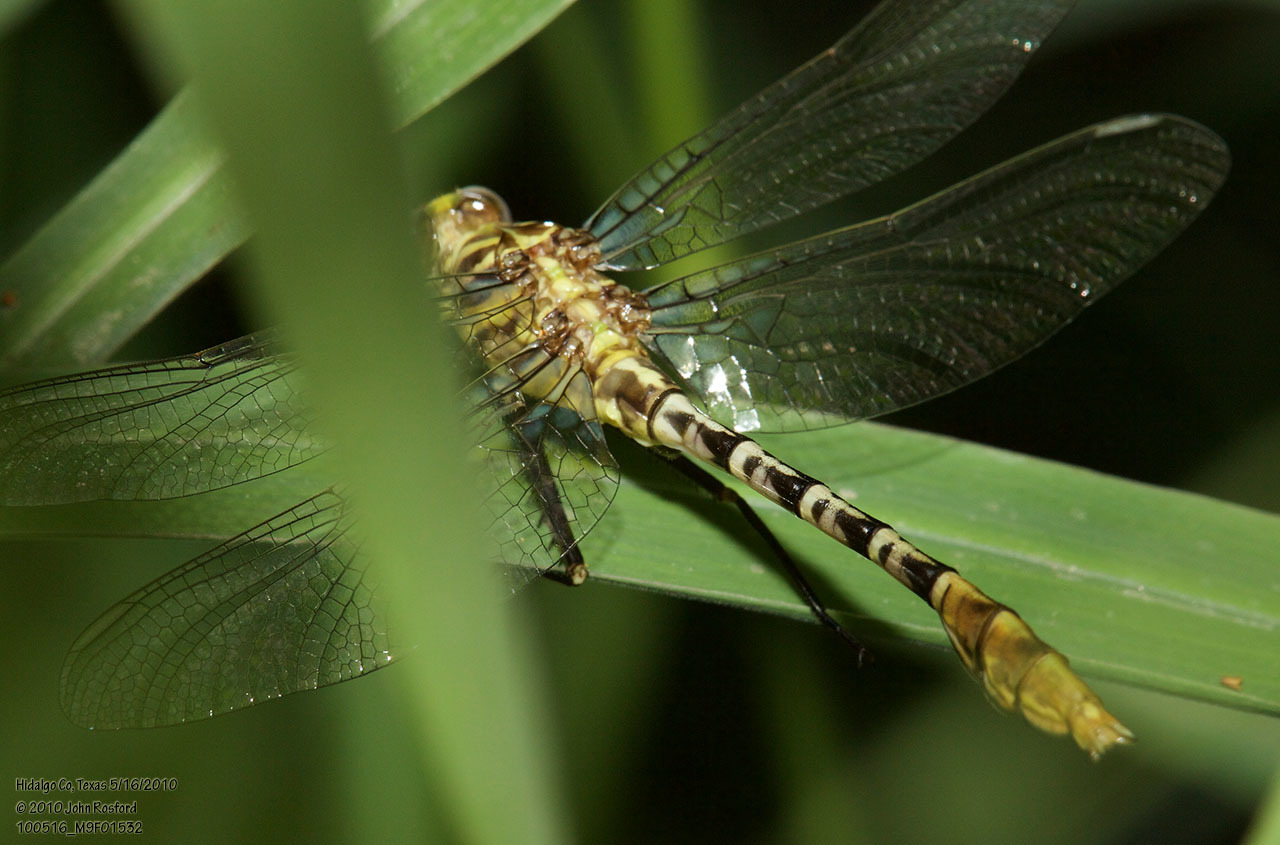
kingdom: Animalia
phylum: Arthropoda
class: Insecta
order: Odonata
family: Gomphidae
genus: Dromogomphus
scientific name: Dromogomphus spoliatus
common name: Flag-tailed spinyleg
